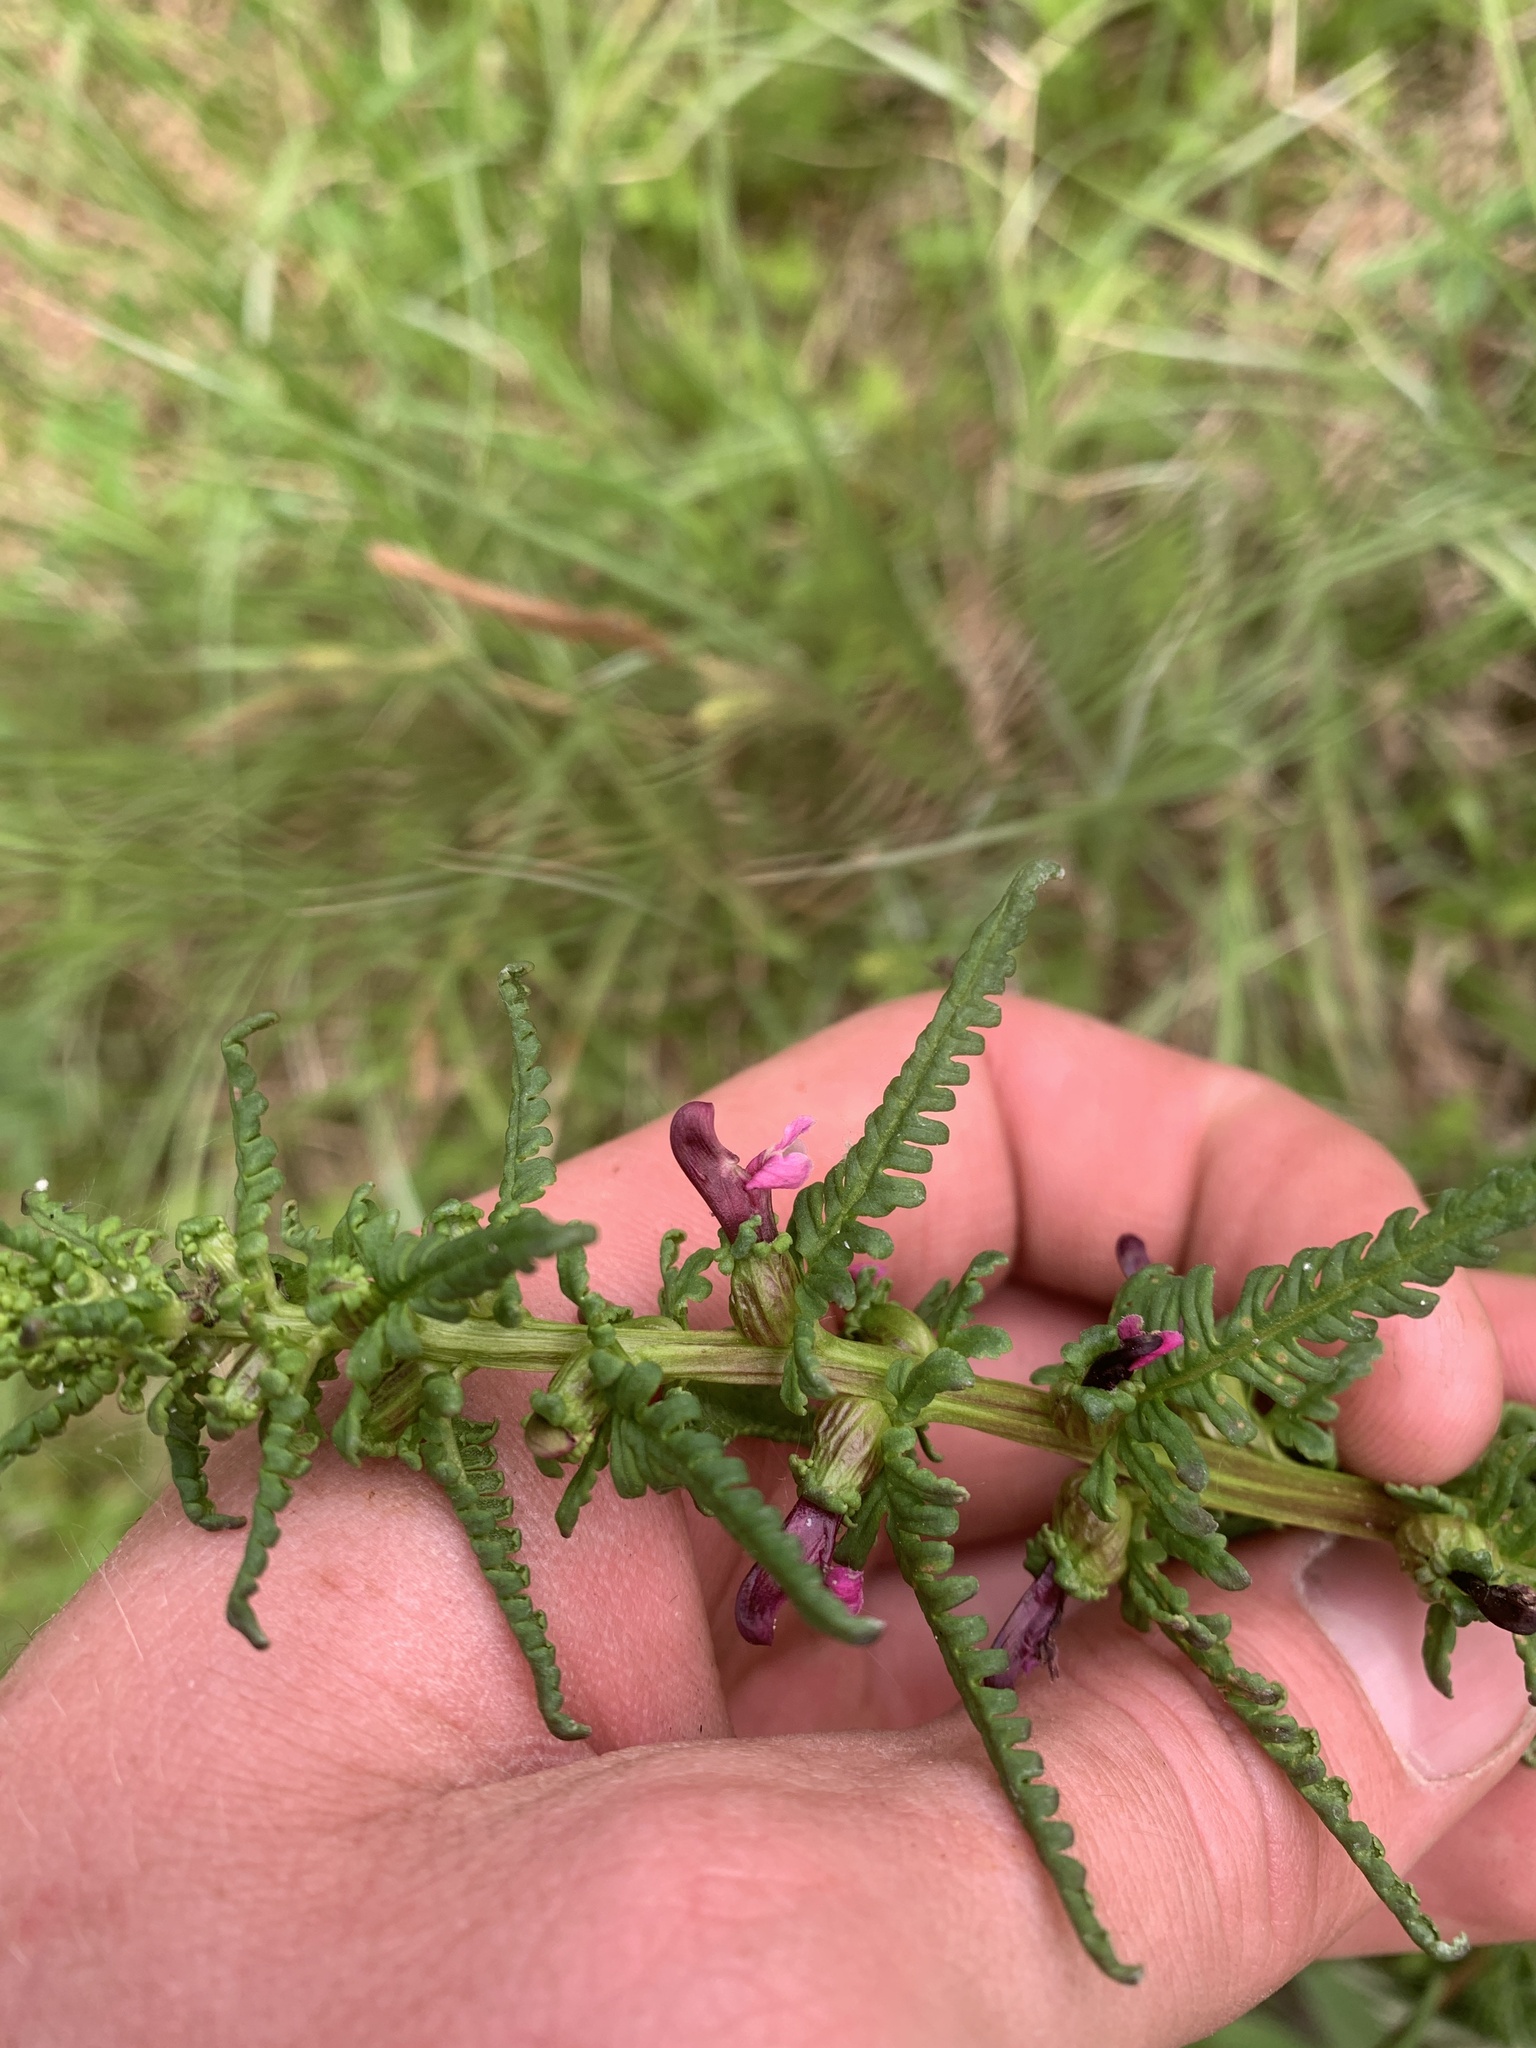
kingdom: Plantae
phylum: Tracheophyta
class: Magnoliopsida
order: Lamiales
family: Orobanchaceae
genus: Pedicularis
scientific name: Pedicularis parviflora
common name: Muskeg lousewort
